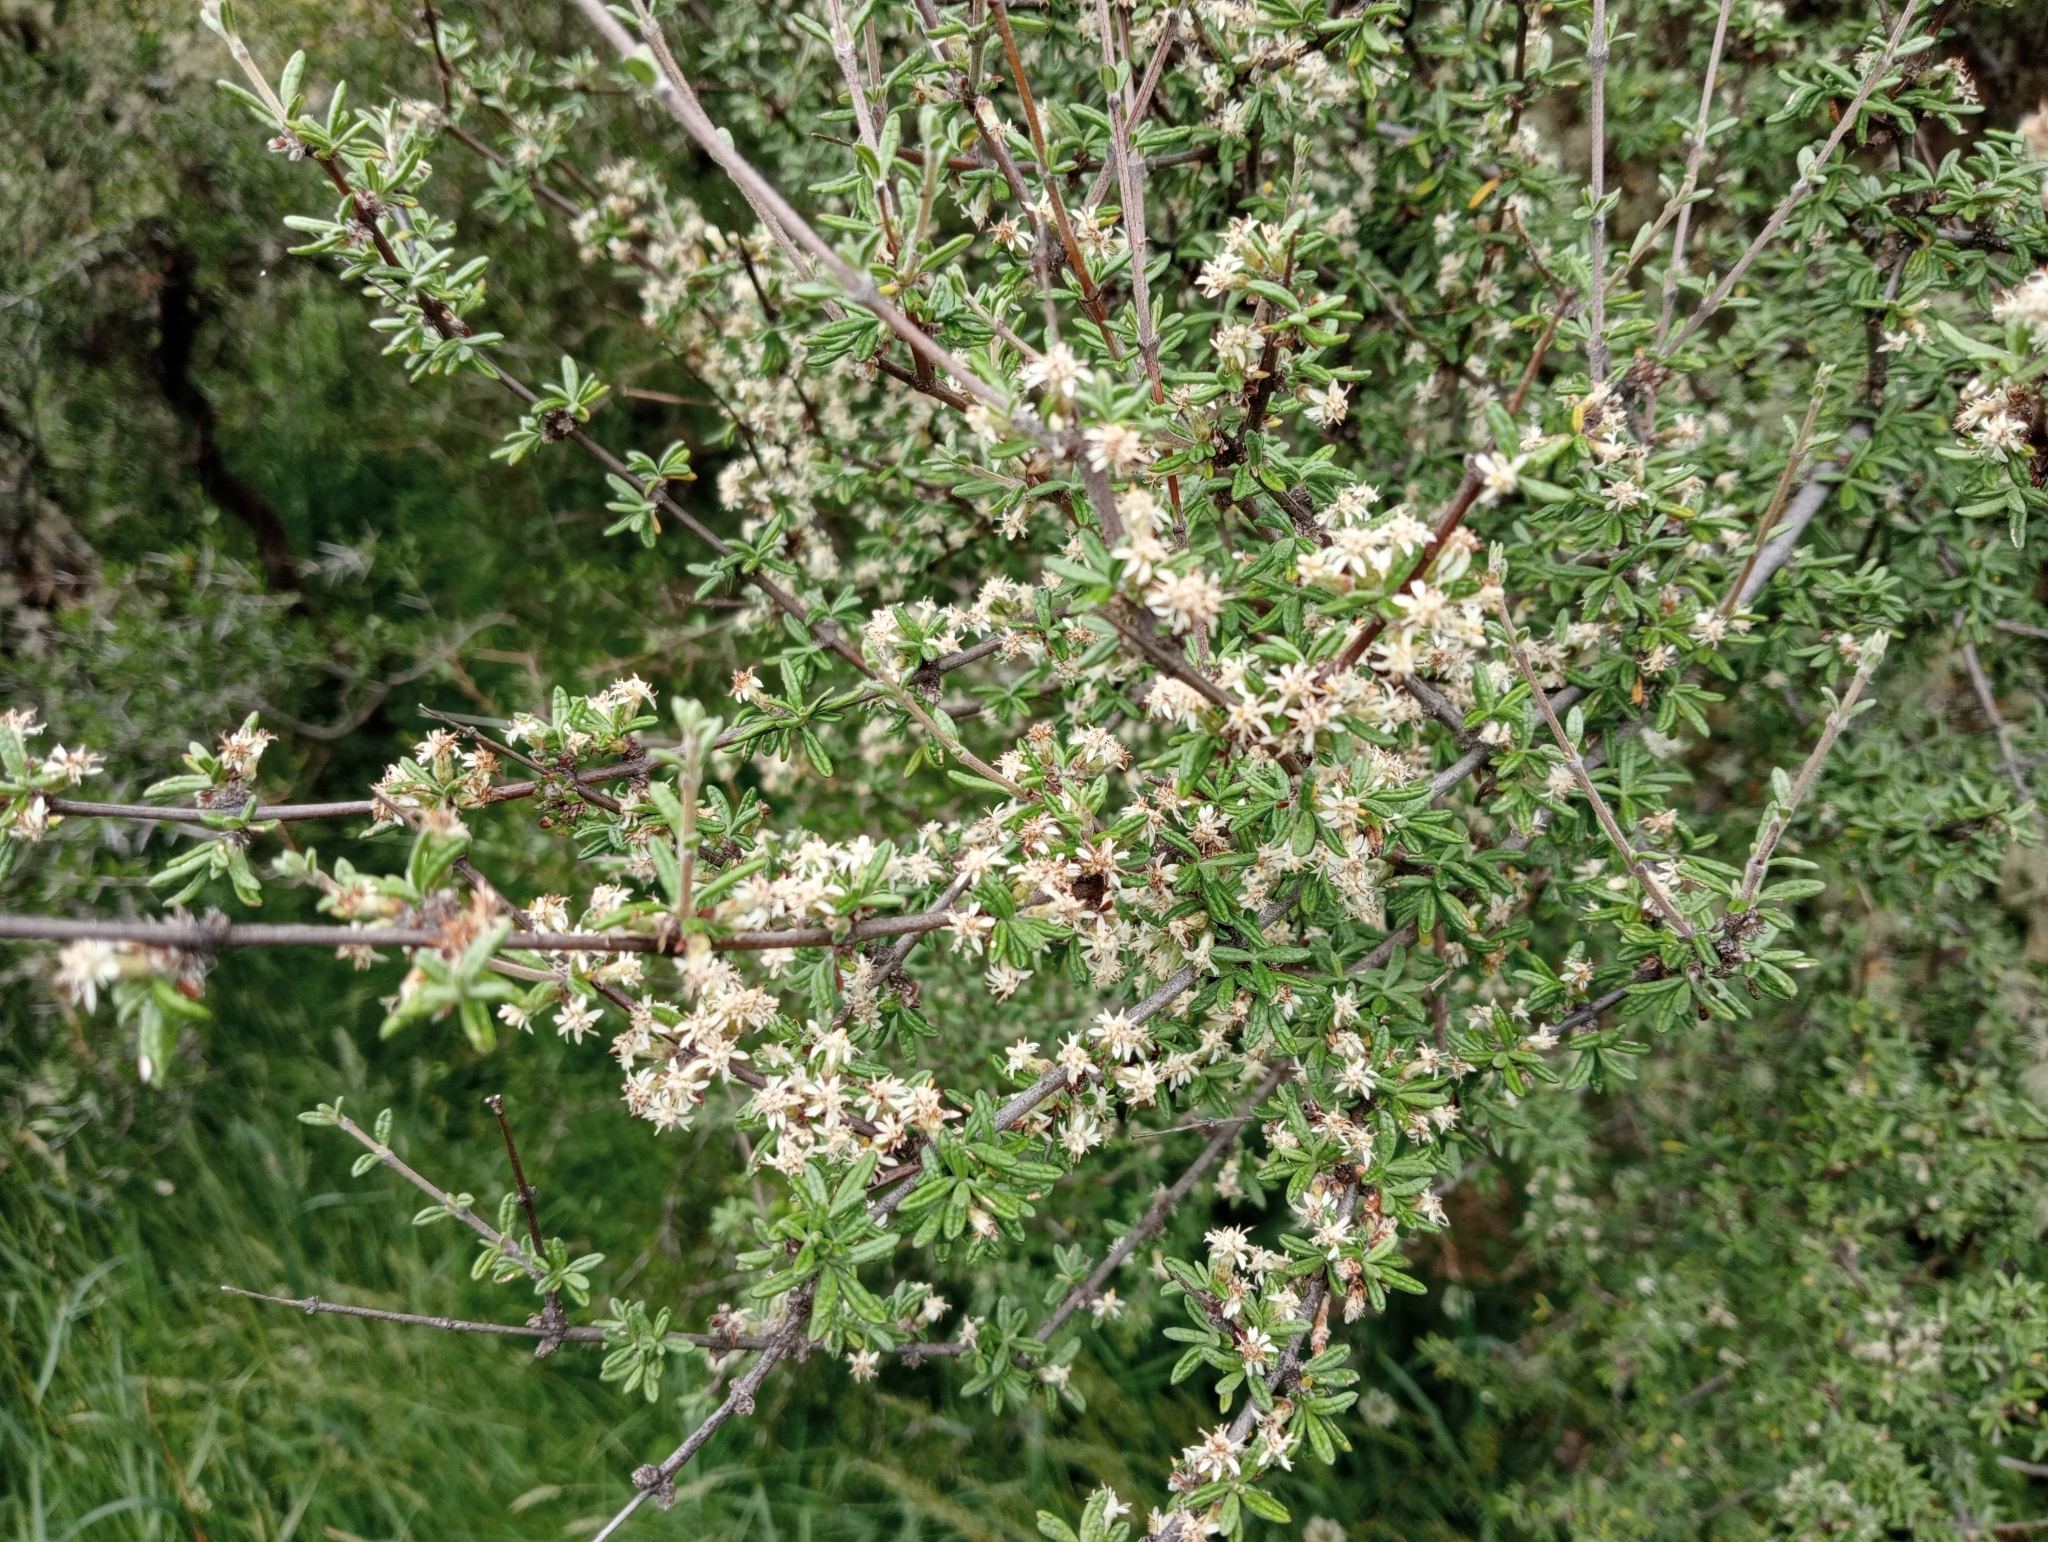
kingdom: Plantae
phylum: Tracheophyta
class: Magnoliopsida
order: Asterales
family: Asteraceae
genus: Olearia
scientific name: Olearia bullata
